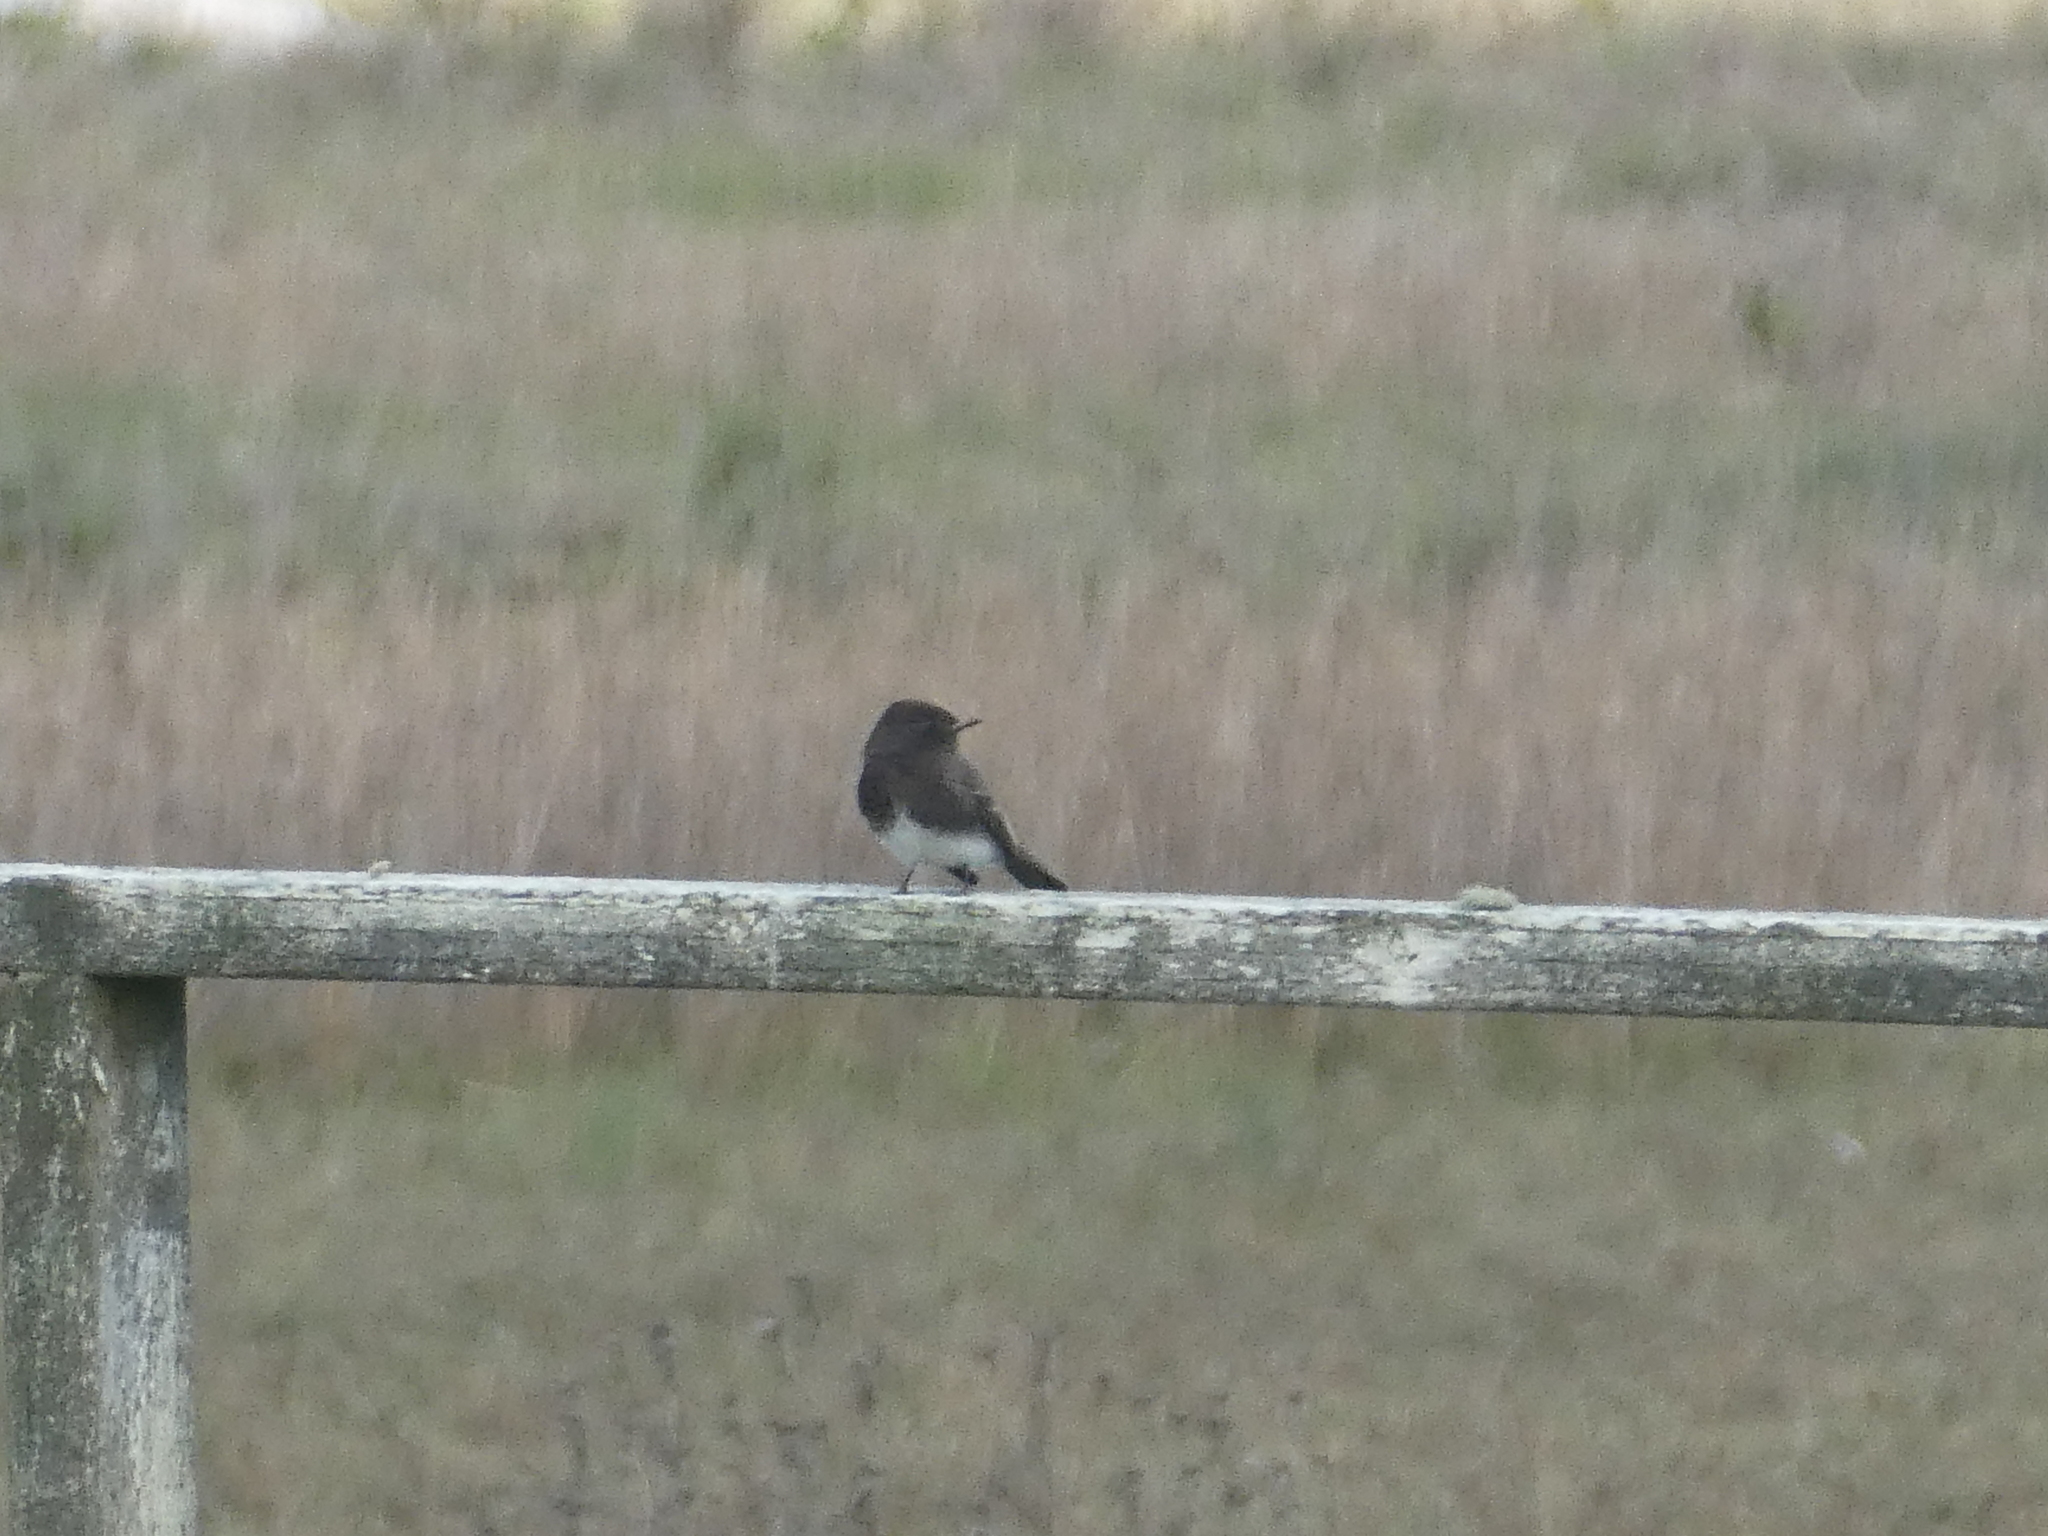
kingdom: Animalia
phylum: Chordata
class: Aves
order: Passeriformes
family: Tyrannidae
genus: Sayornis
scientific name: Sayornis nigricans
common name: Black phoebe
